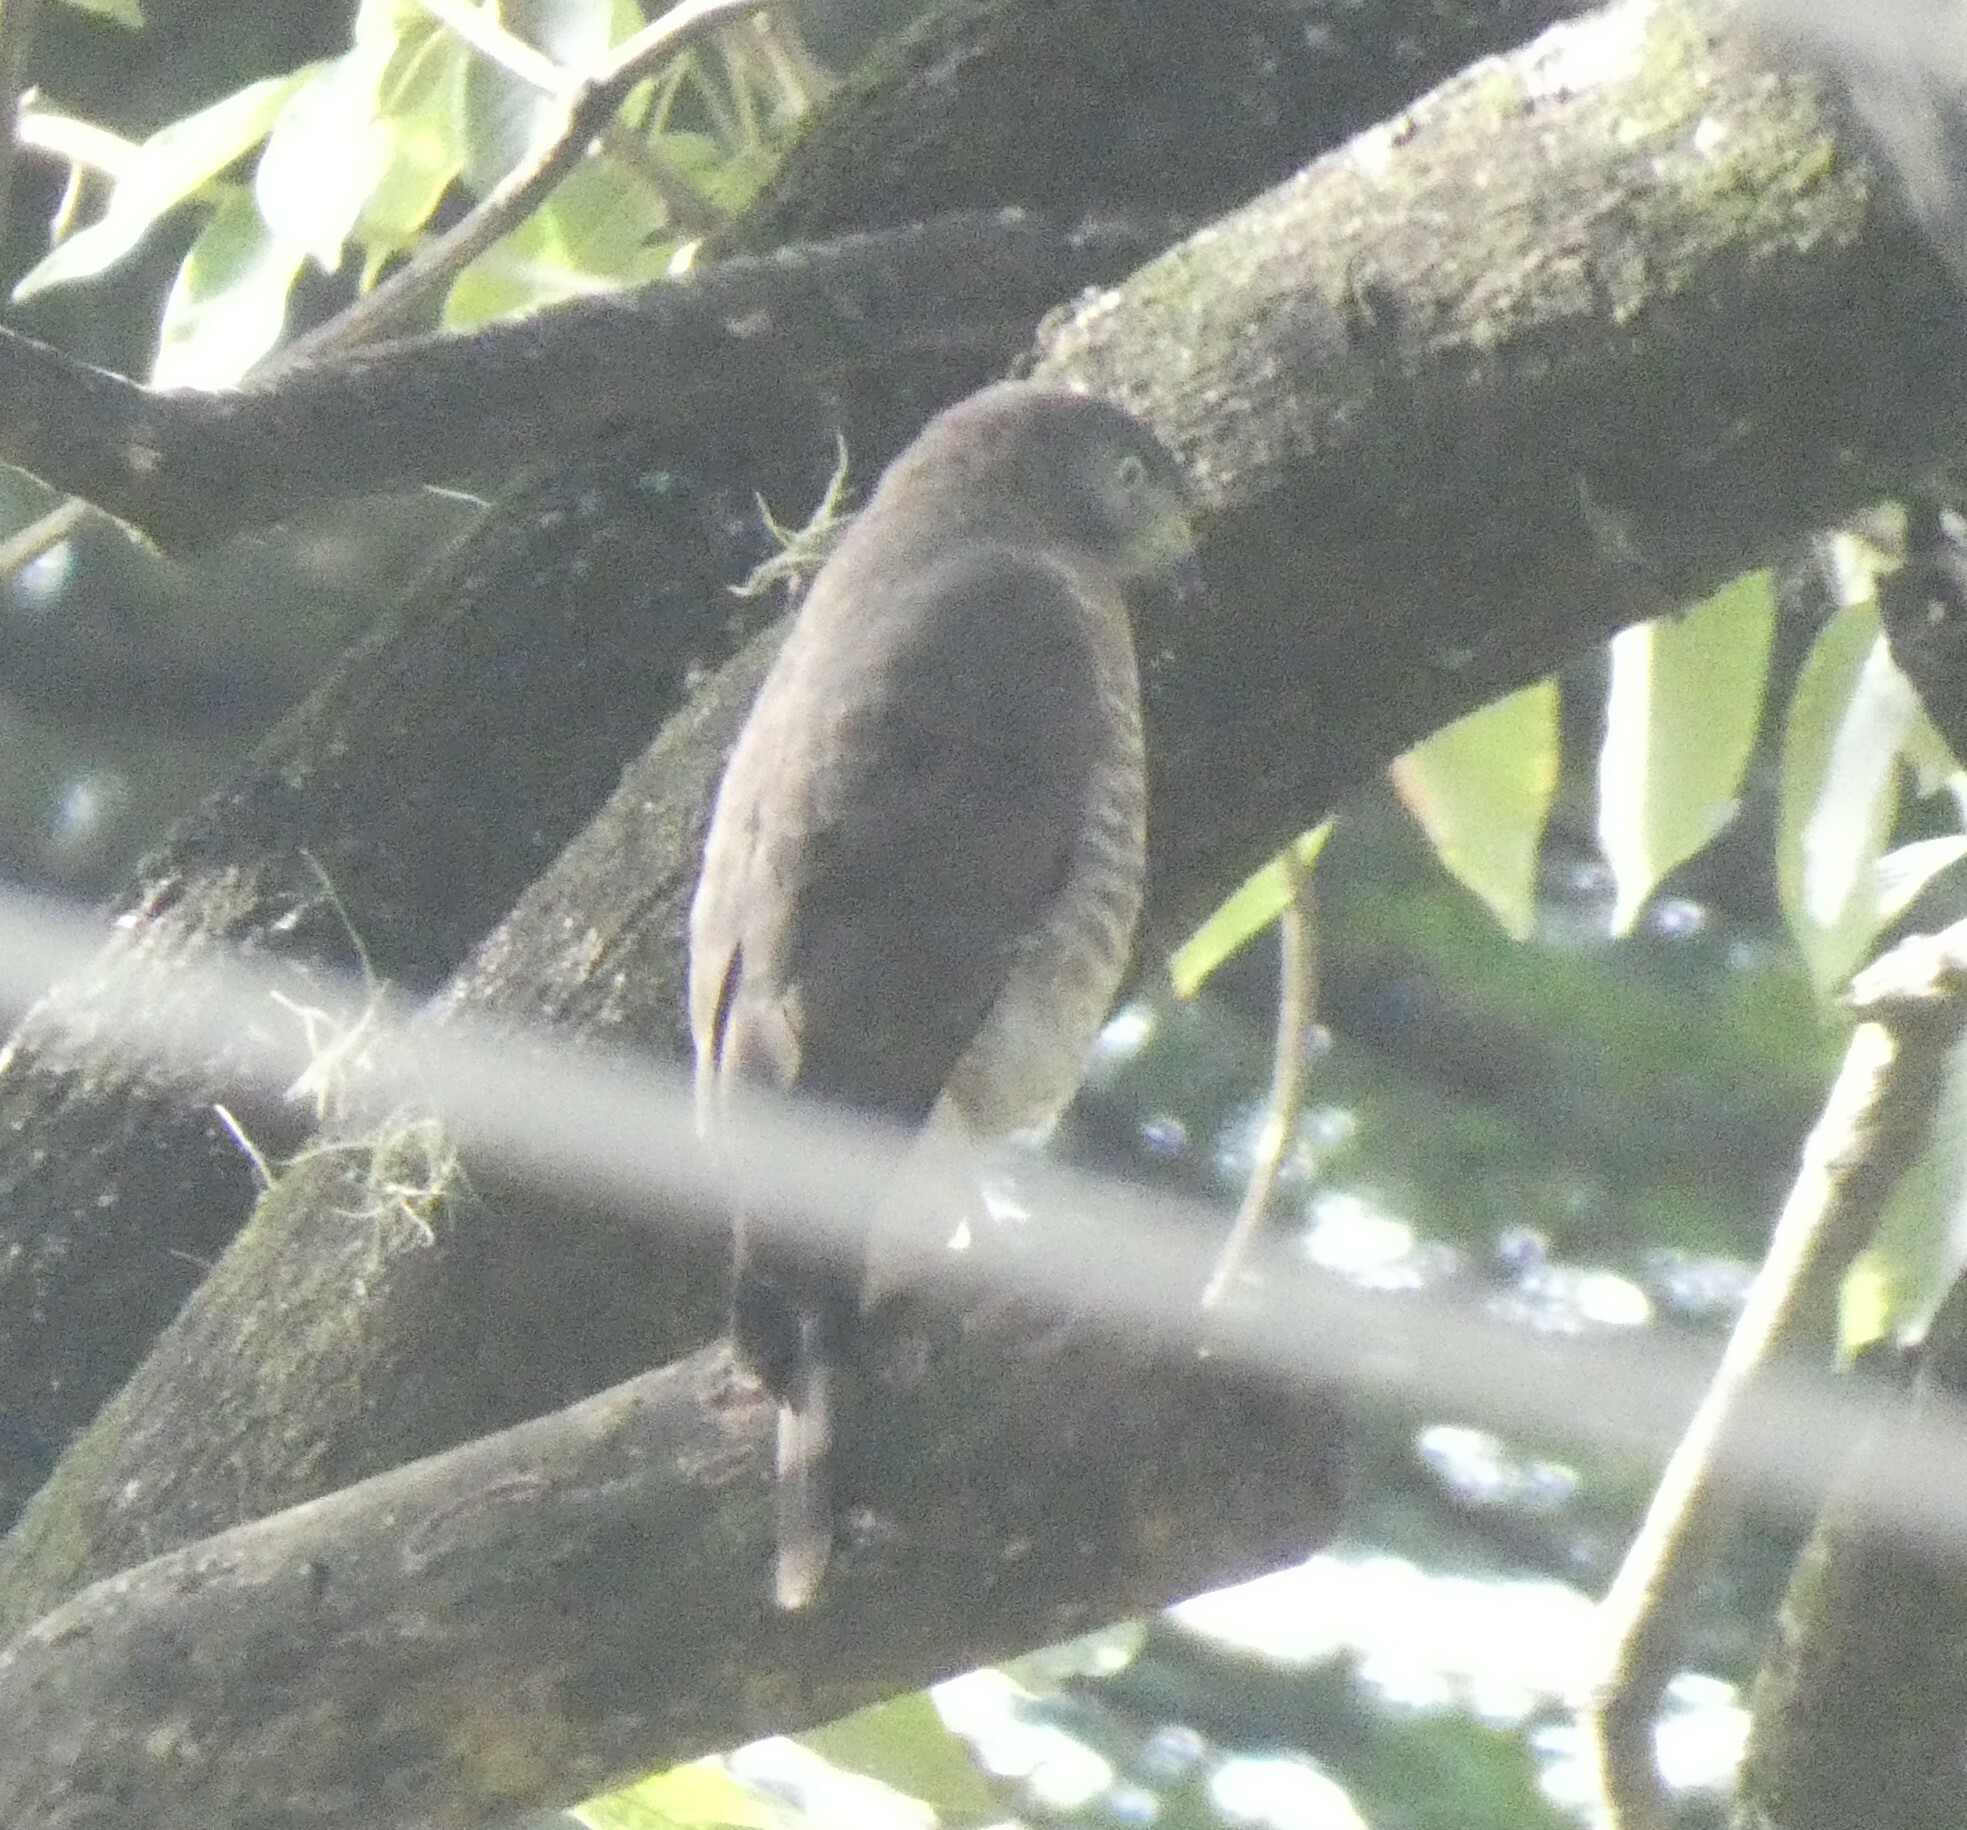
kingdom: Animalia
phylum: Chordata
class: Aves
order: Accipitriformes
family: Accipitridae
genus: Rupornis
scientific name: Rupornis magnirostris
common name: Roadside hawk
